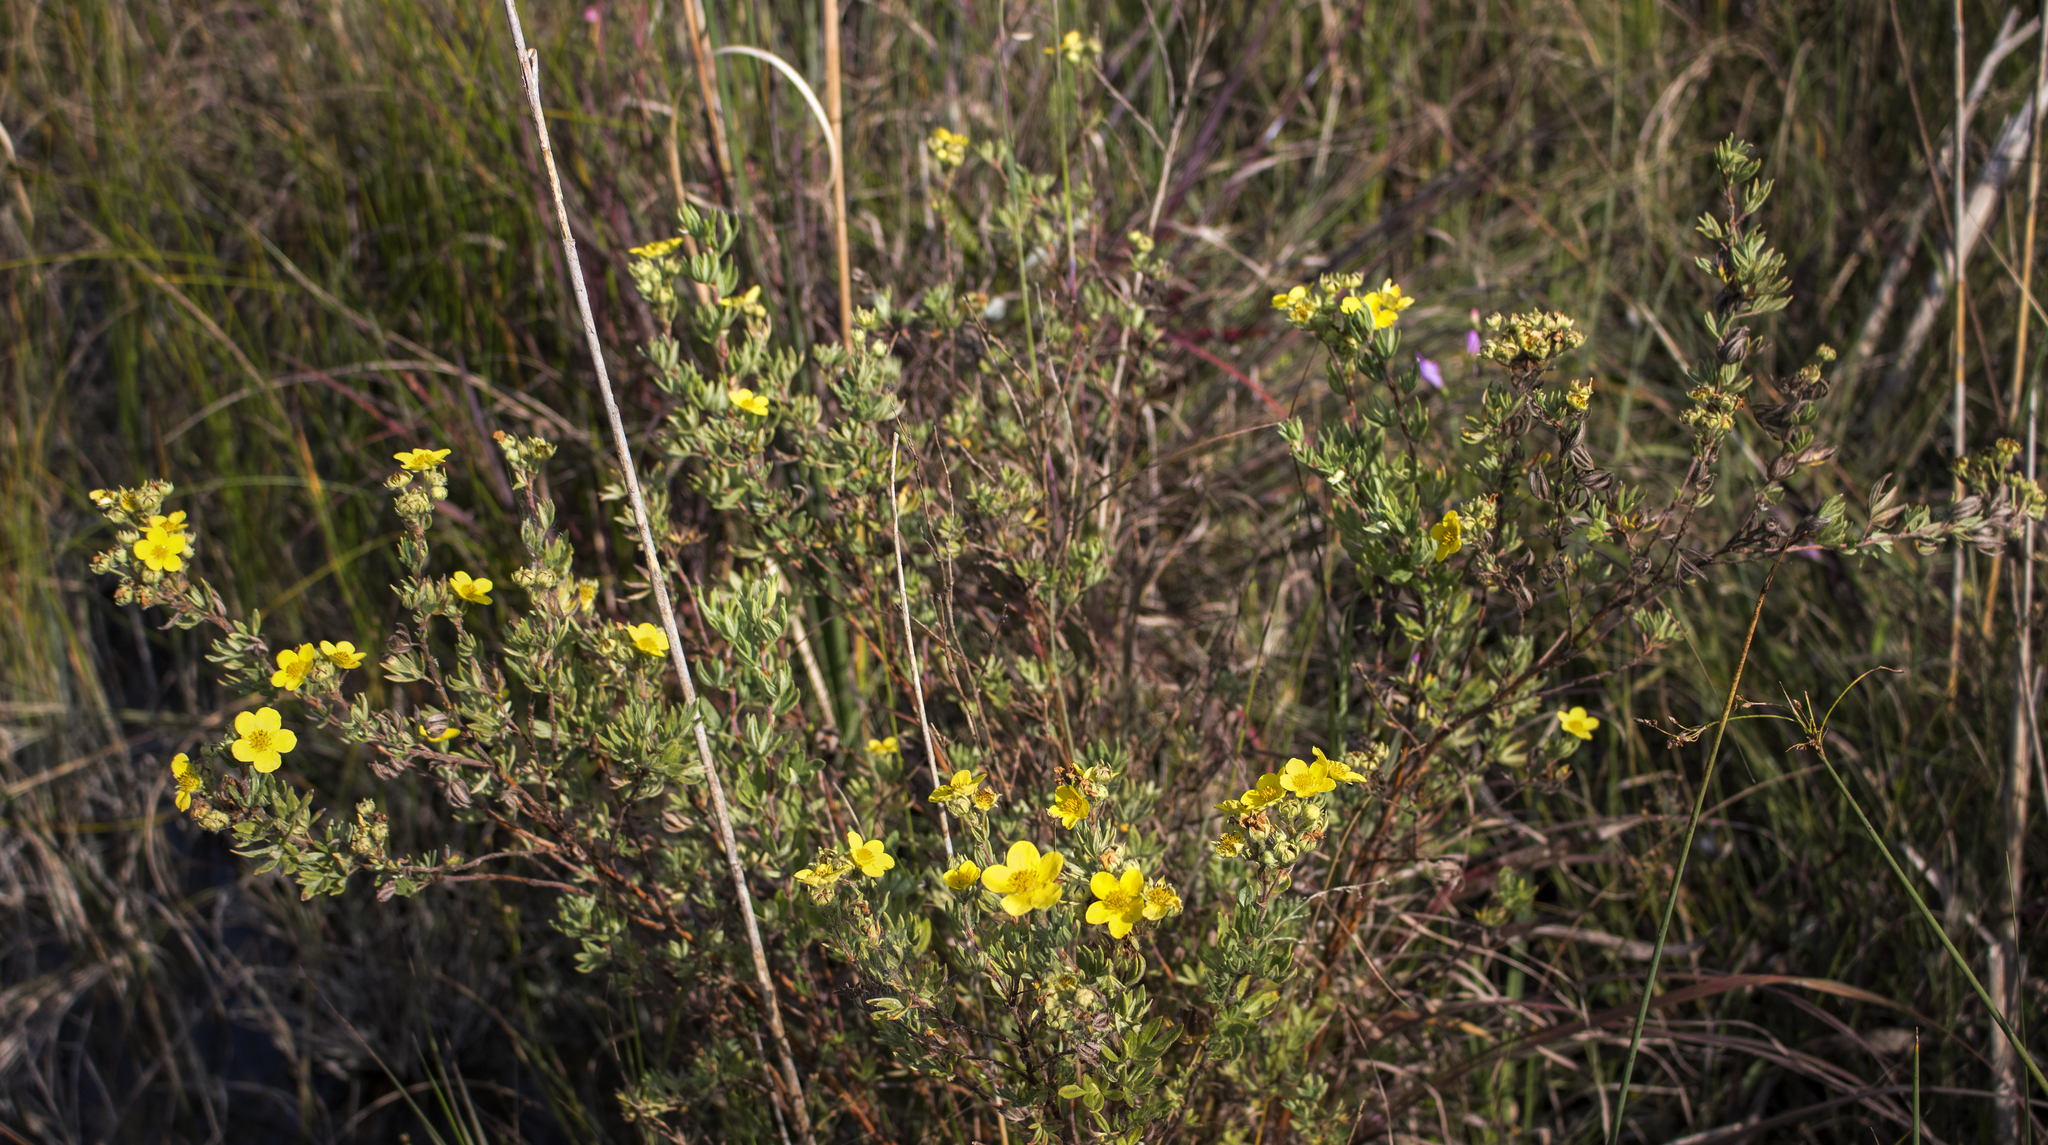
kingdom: Plantae
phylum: Tracheophyta
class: Magnoliopsida
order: Rosales
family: Rosaceae
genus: Dasiphora
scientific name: Dasiphora fruticosa
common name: Shrubby cinquefoil
